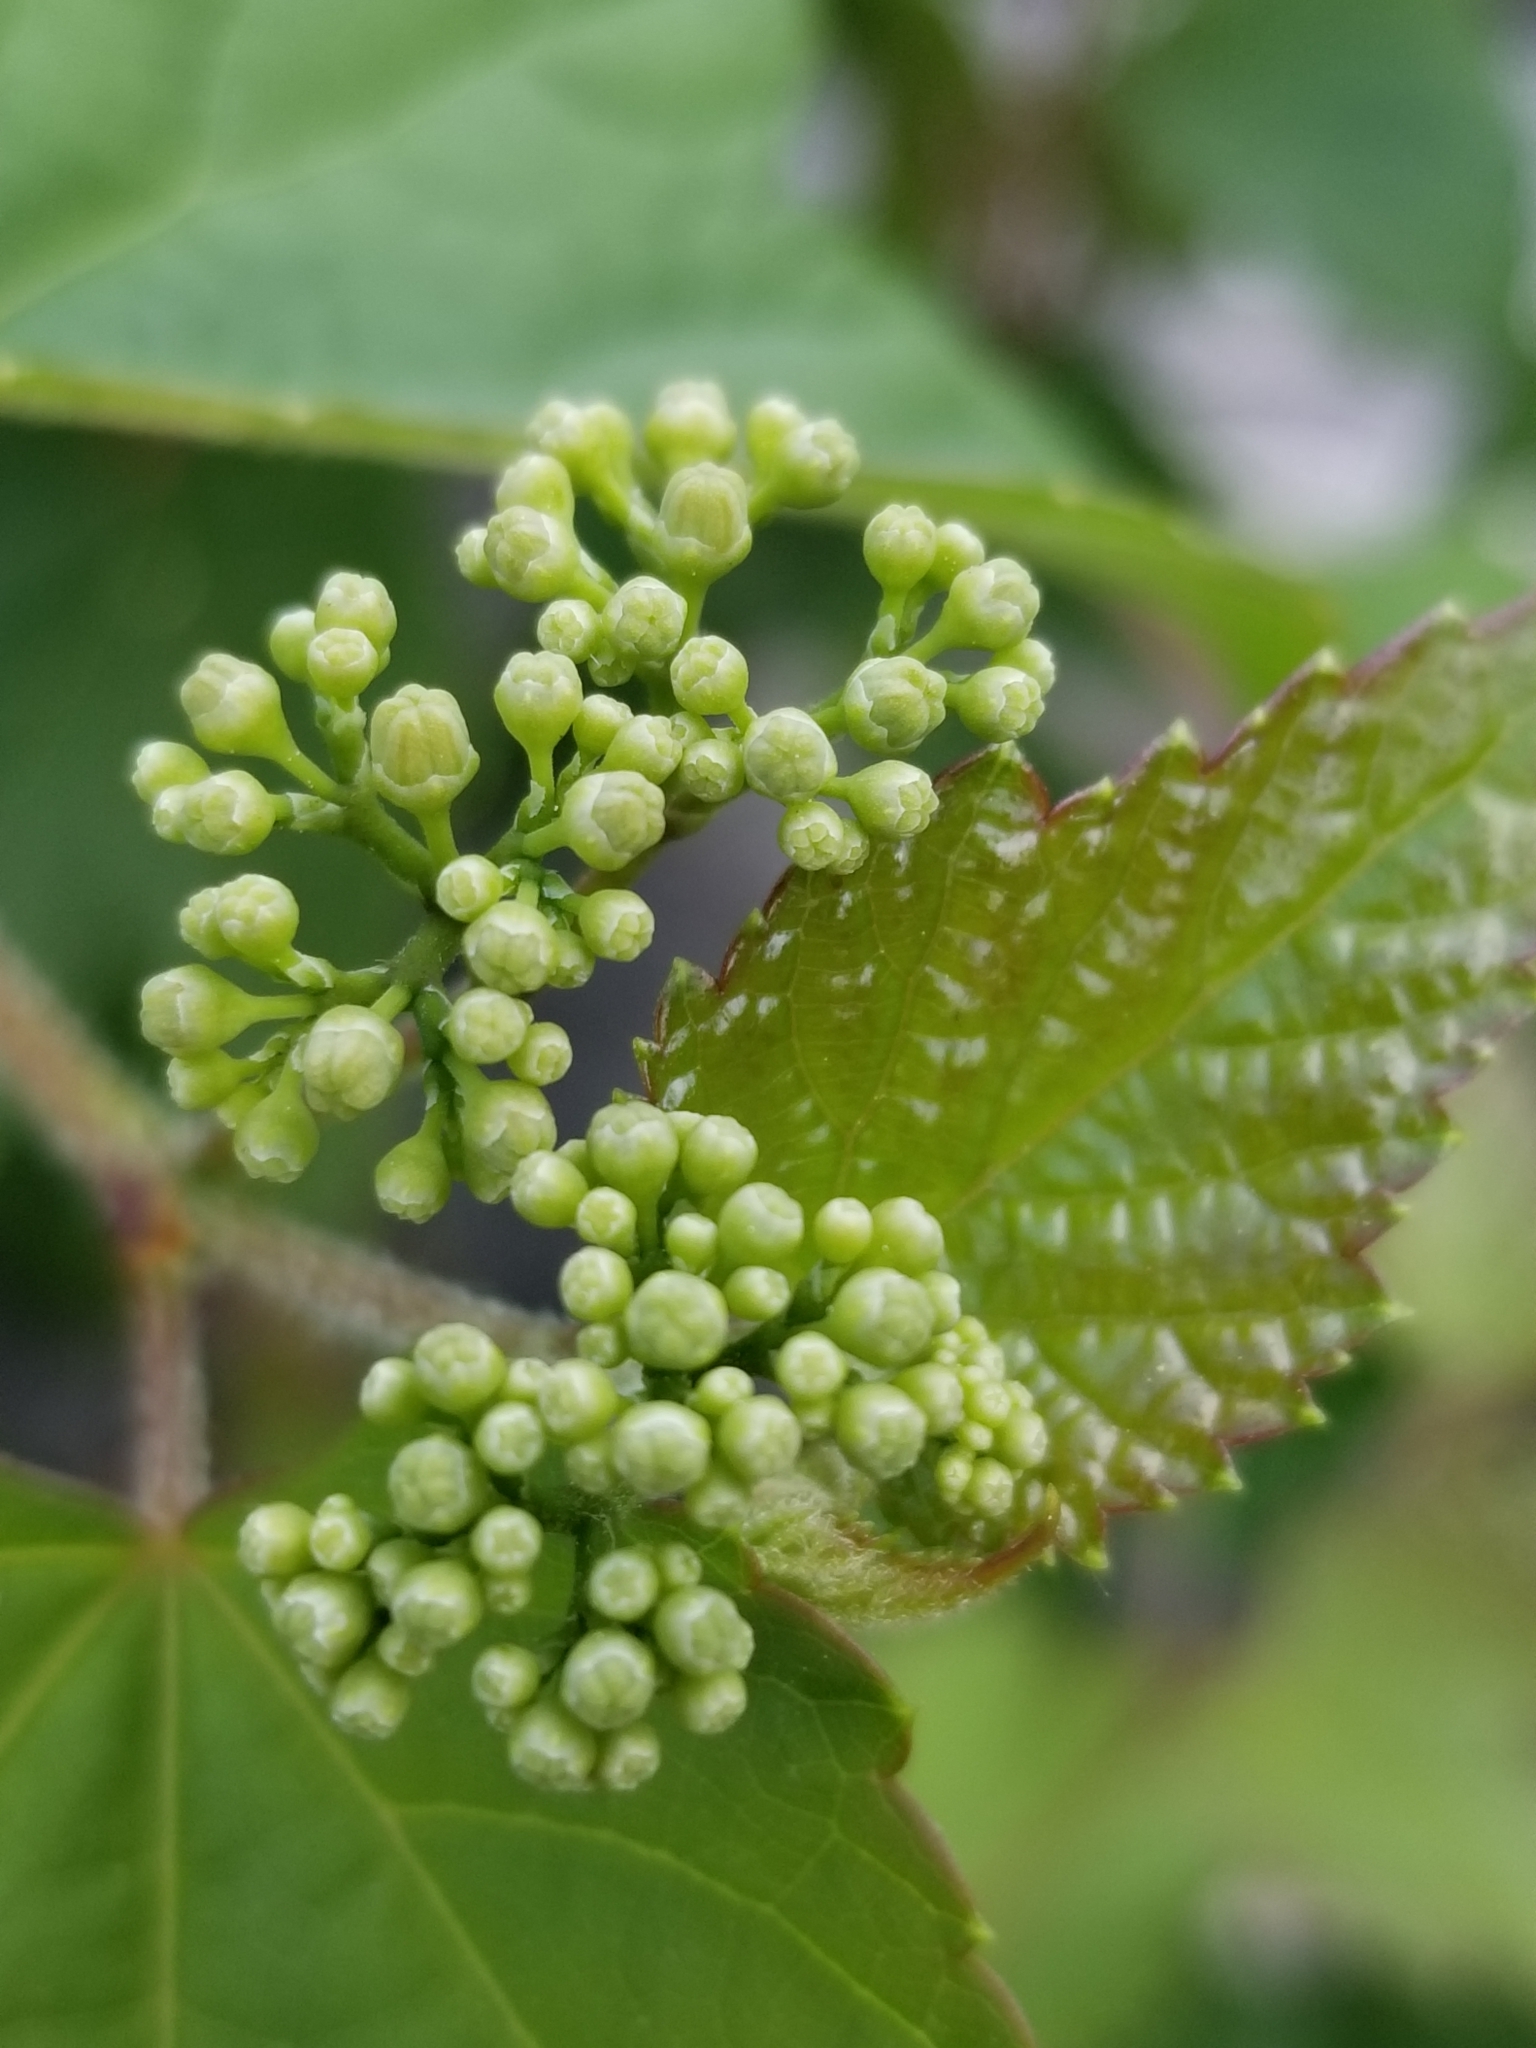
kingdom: Plantae
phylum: Tracheophyta
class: Magnoliopsida
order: Vitales
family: Vitaceae
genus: Ampelopsis
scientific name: Ampelopsis glandulosa
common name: Amur peppervine
